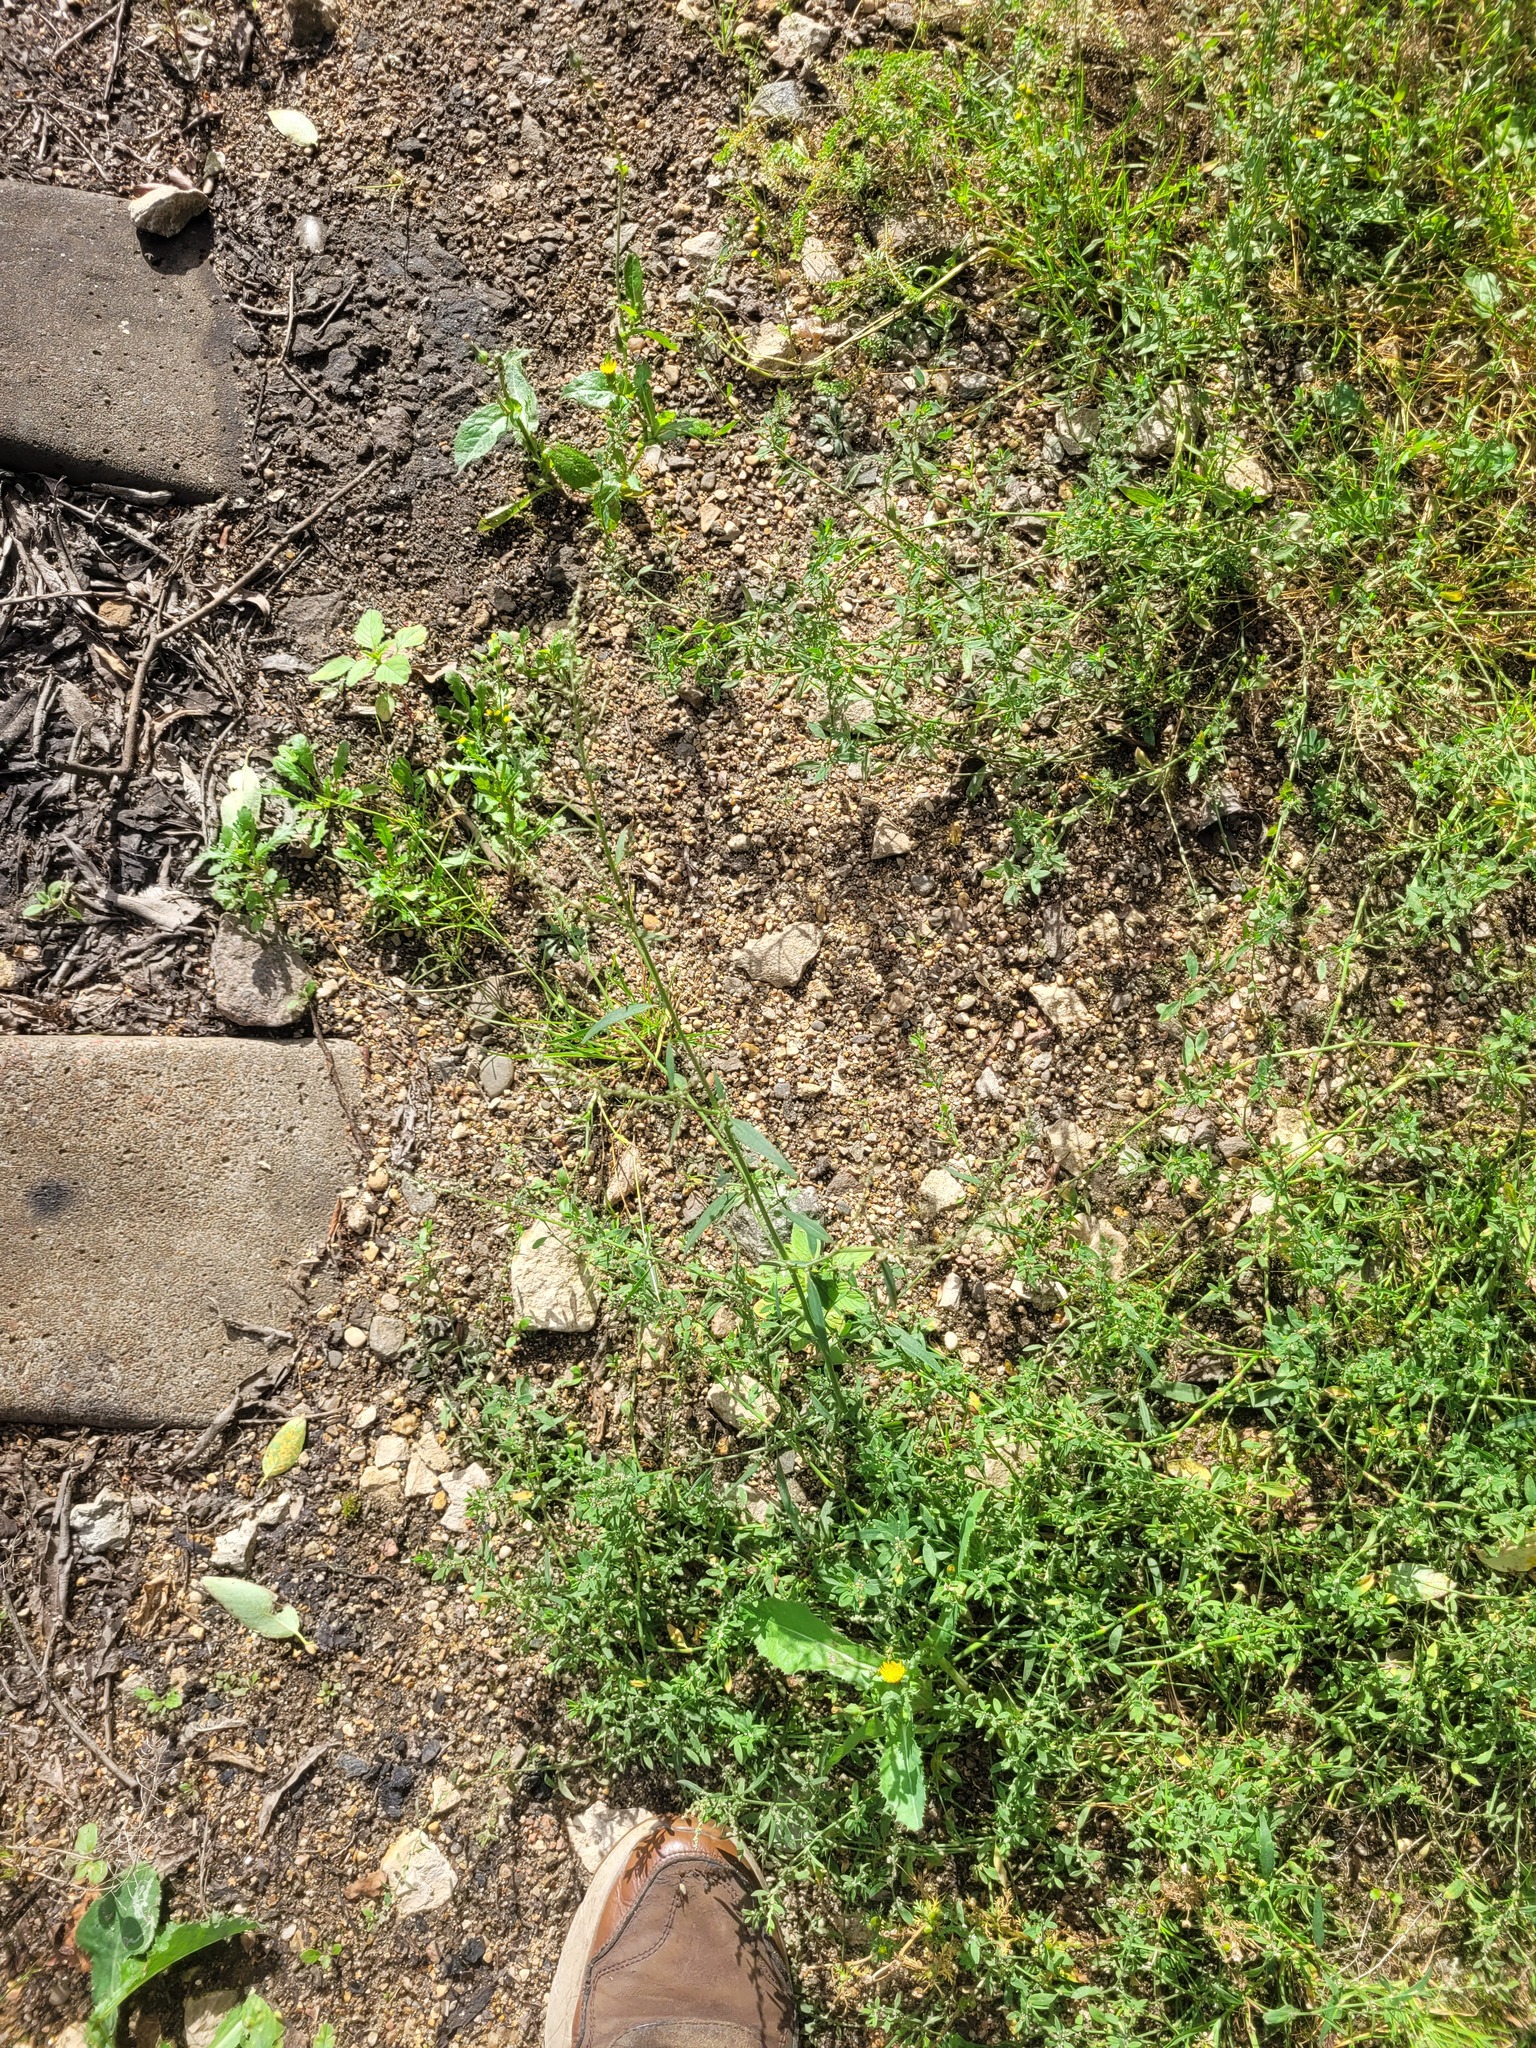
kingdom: Plantae
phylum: Tracheophyta
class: Magnoliopsida
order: Caryophyllales
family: Amaranthaceae
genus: Atriplex
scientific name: Atriplex patula
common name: Common orache
